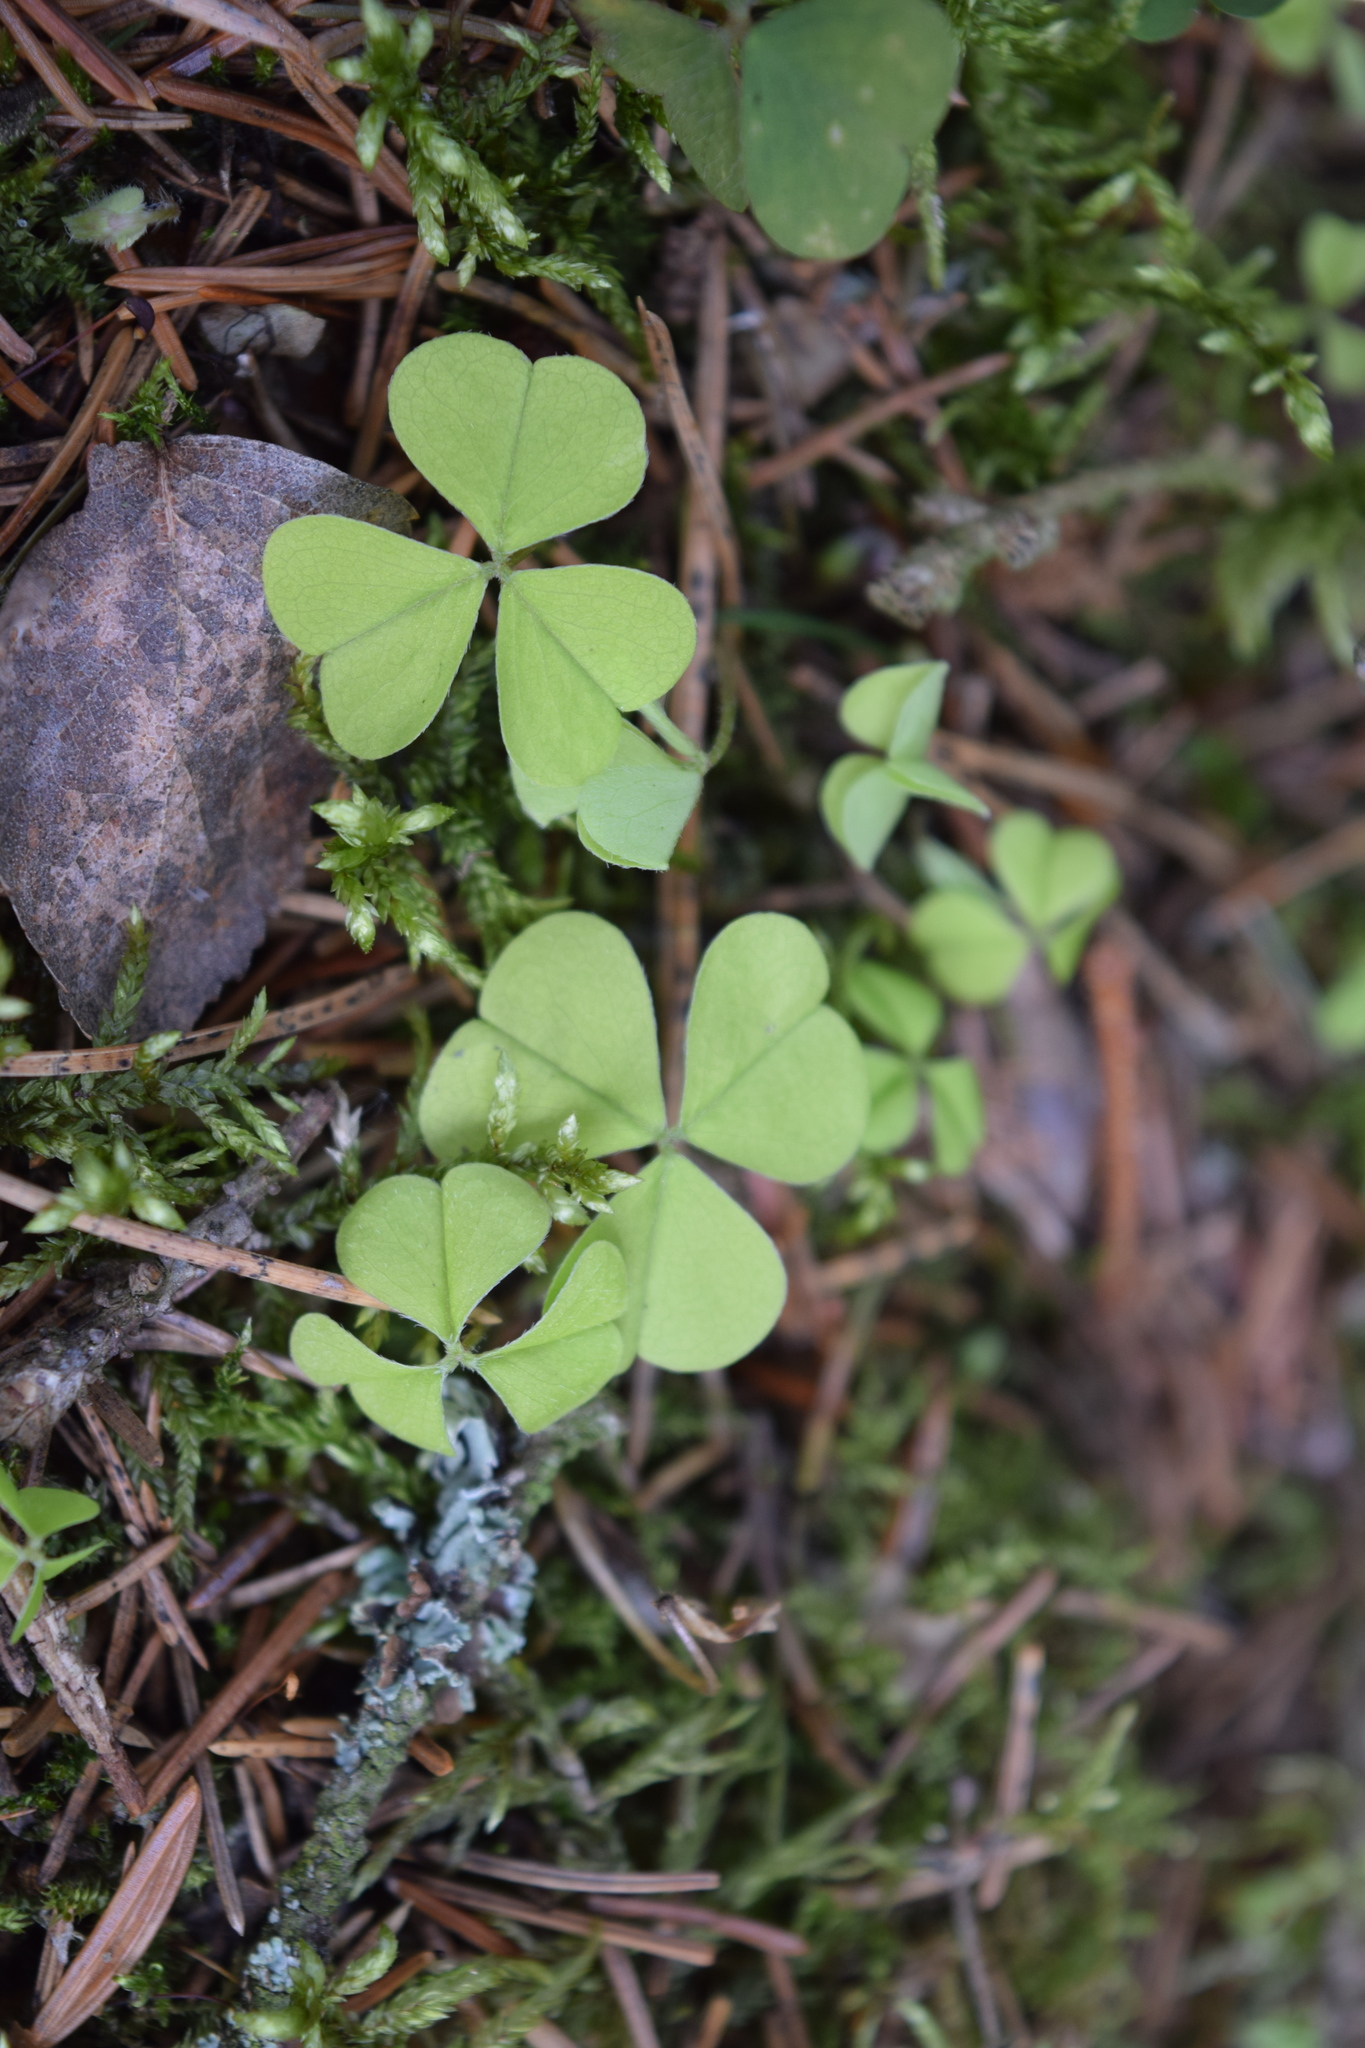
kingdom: Plantae
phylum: Tracheophyta
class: Magnoliopsida
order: Oxalidales
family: Oxalidaceae
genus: Oxalis
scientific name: Oxalis acetosella
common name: Wood-sorrel
